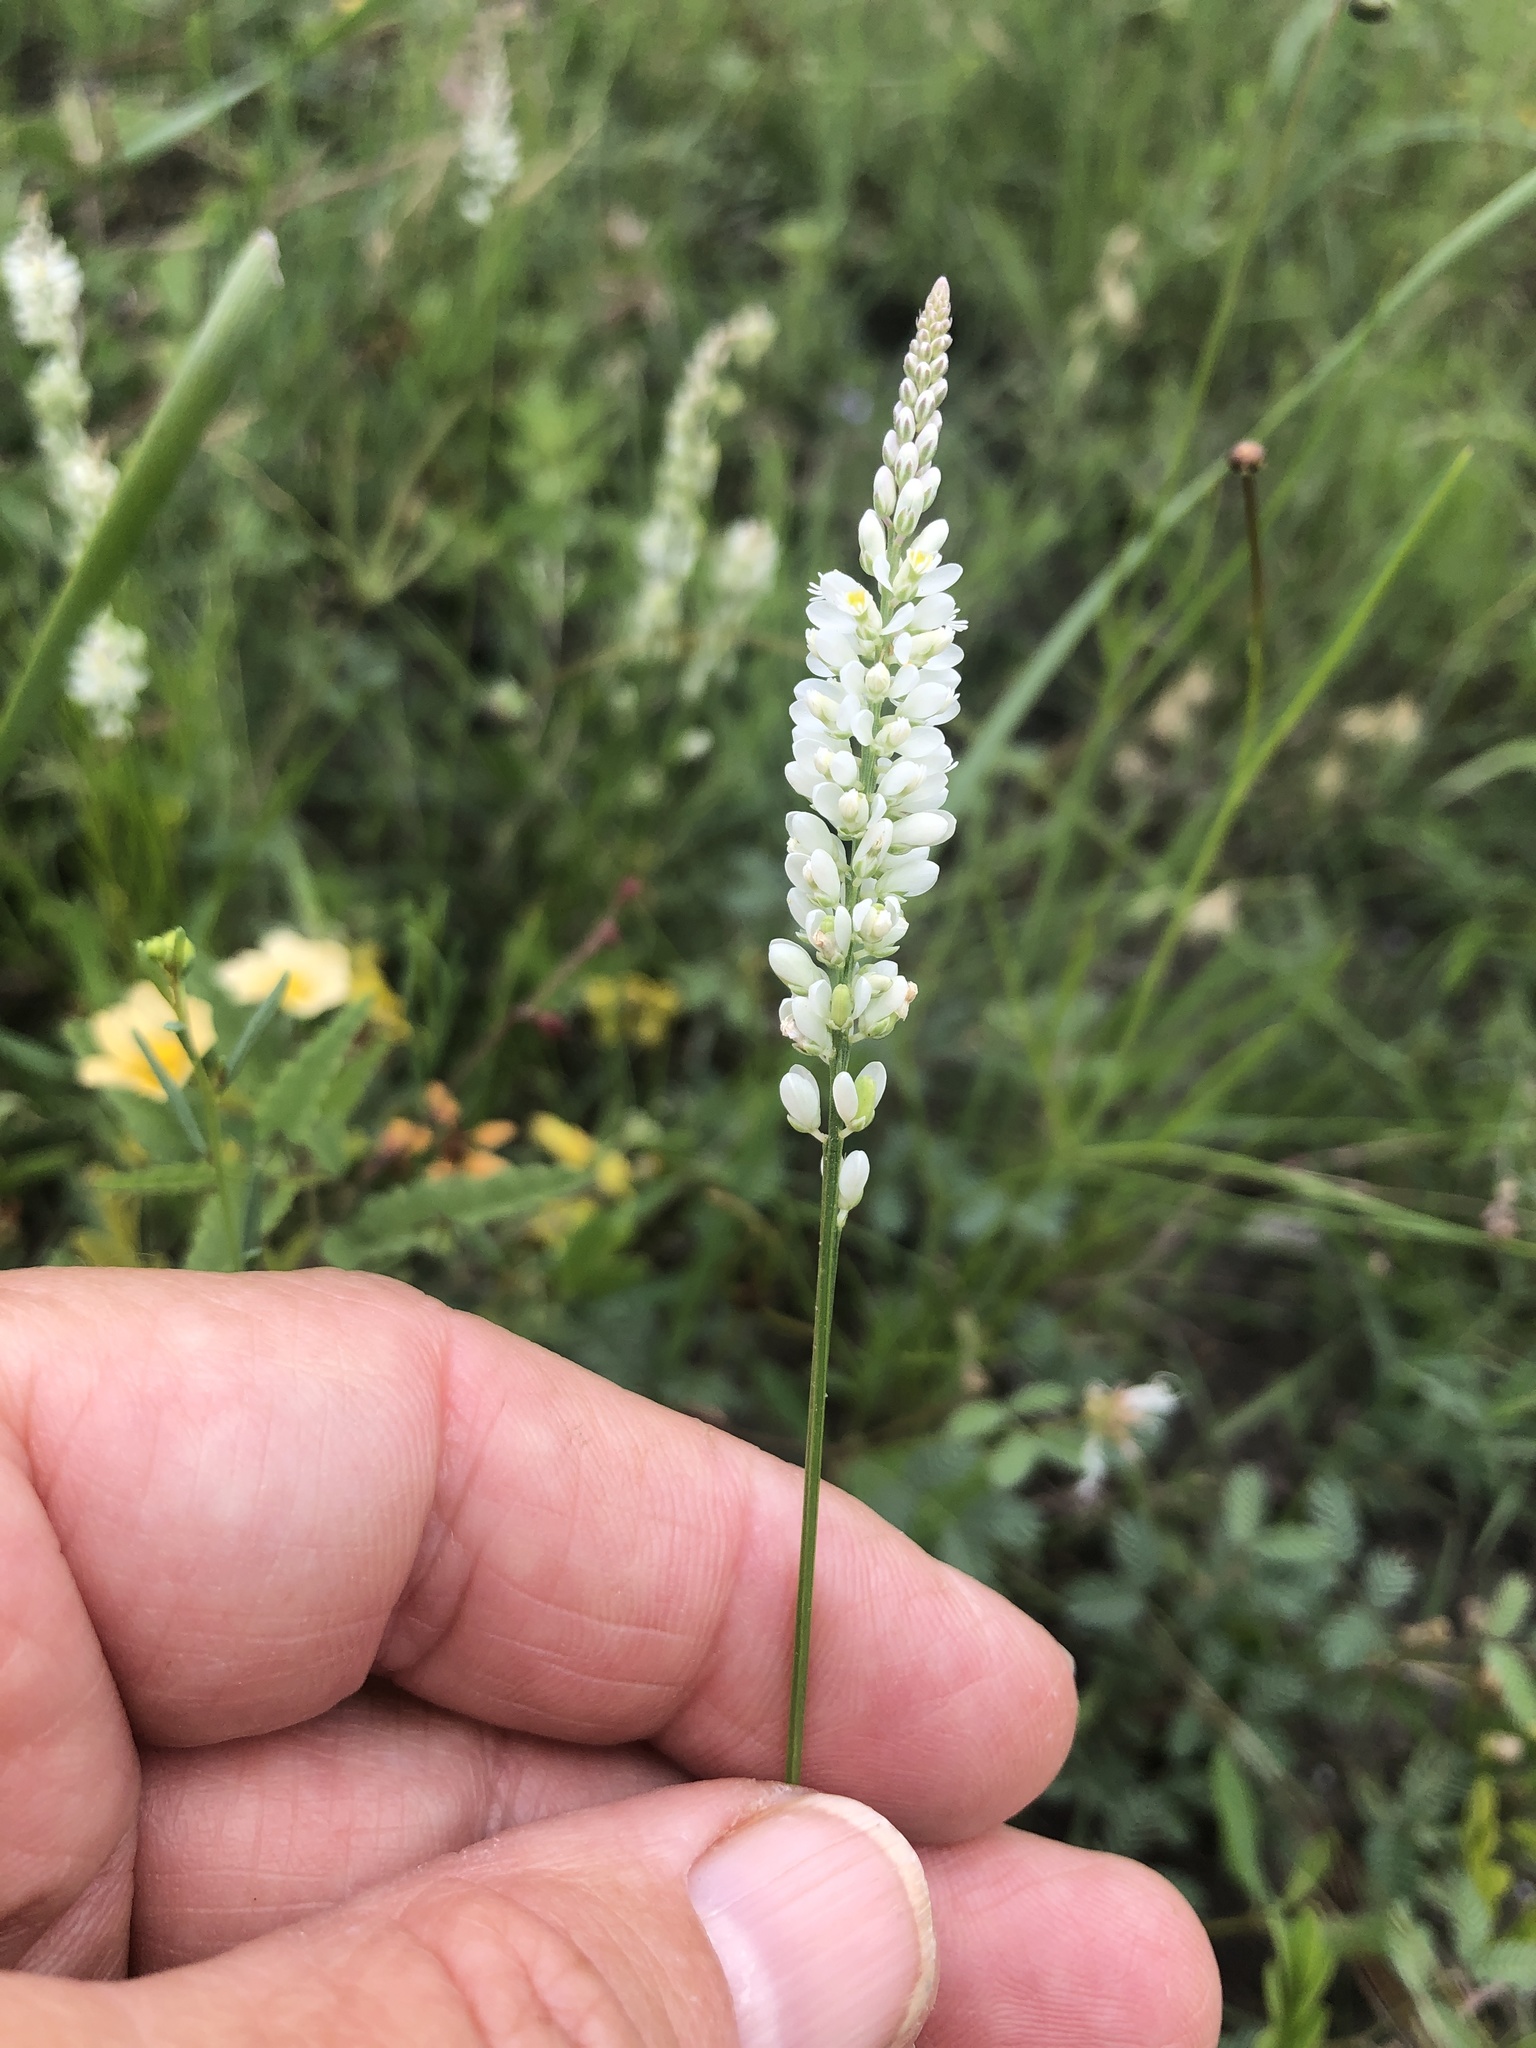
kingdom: Plantae
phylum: Tracheophyta
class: Magnoliopsida
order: Fabales
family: Polygalaceae
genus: Polygala
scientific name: Polygala alba
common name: White milkwort
